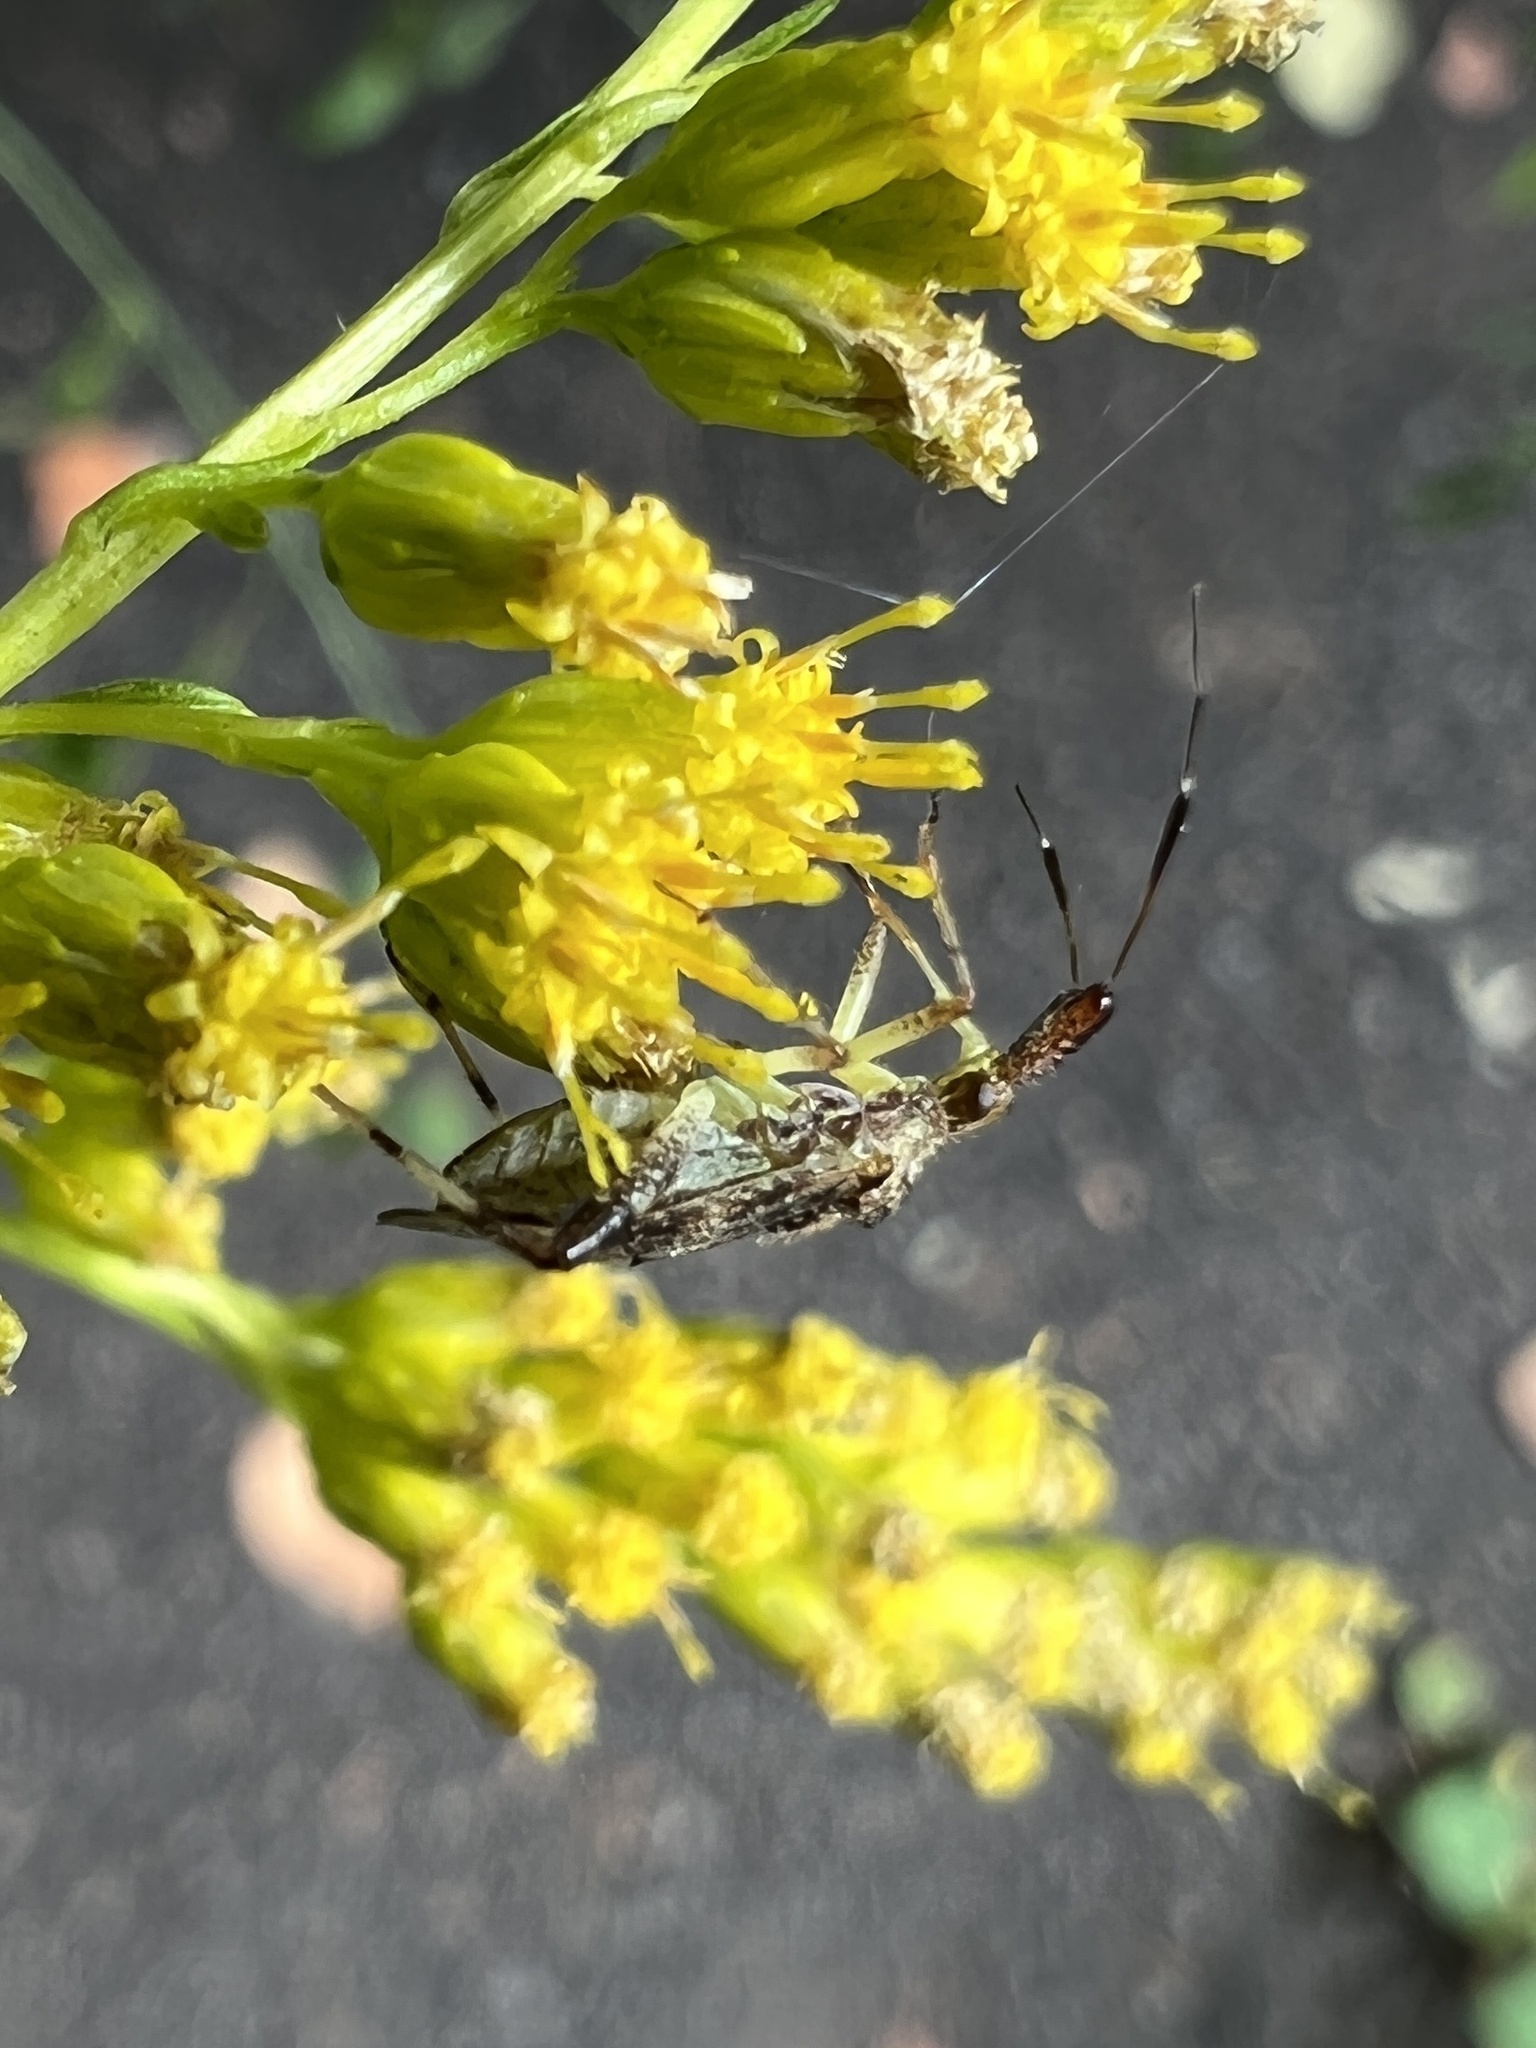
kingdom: Animalia
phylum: Arthropoda
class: Insecta
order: Hemiptera
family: Miridae
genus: Neurocolpus
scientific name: Neurocolpus nubilus
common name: Clouded plant bug
